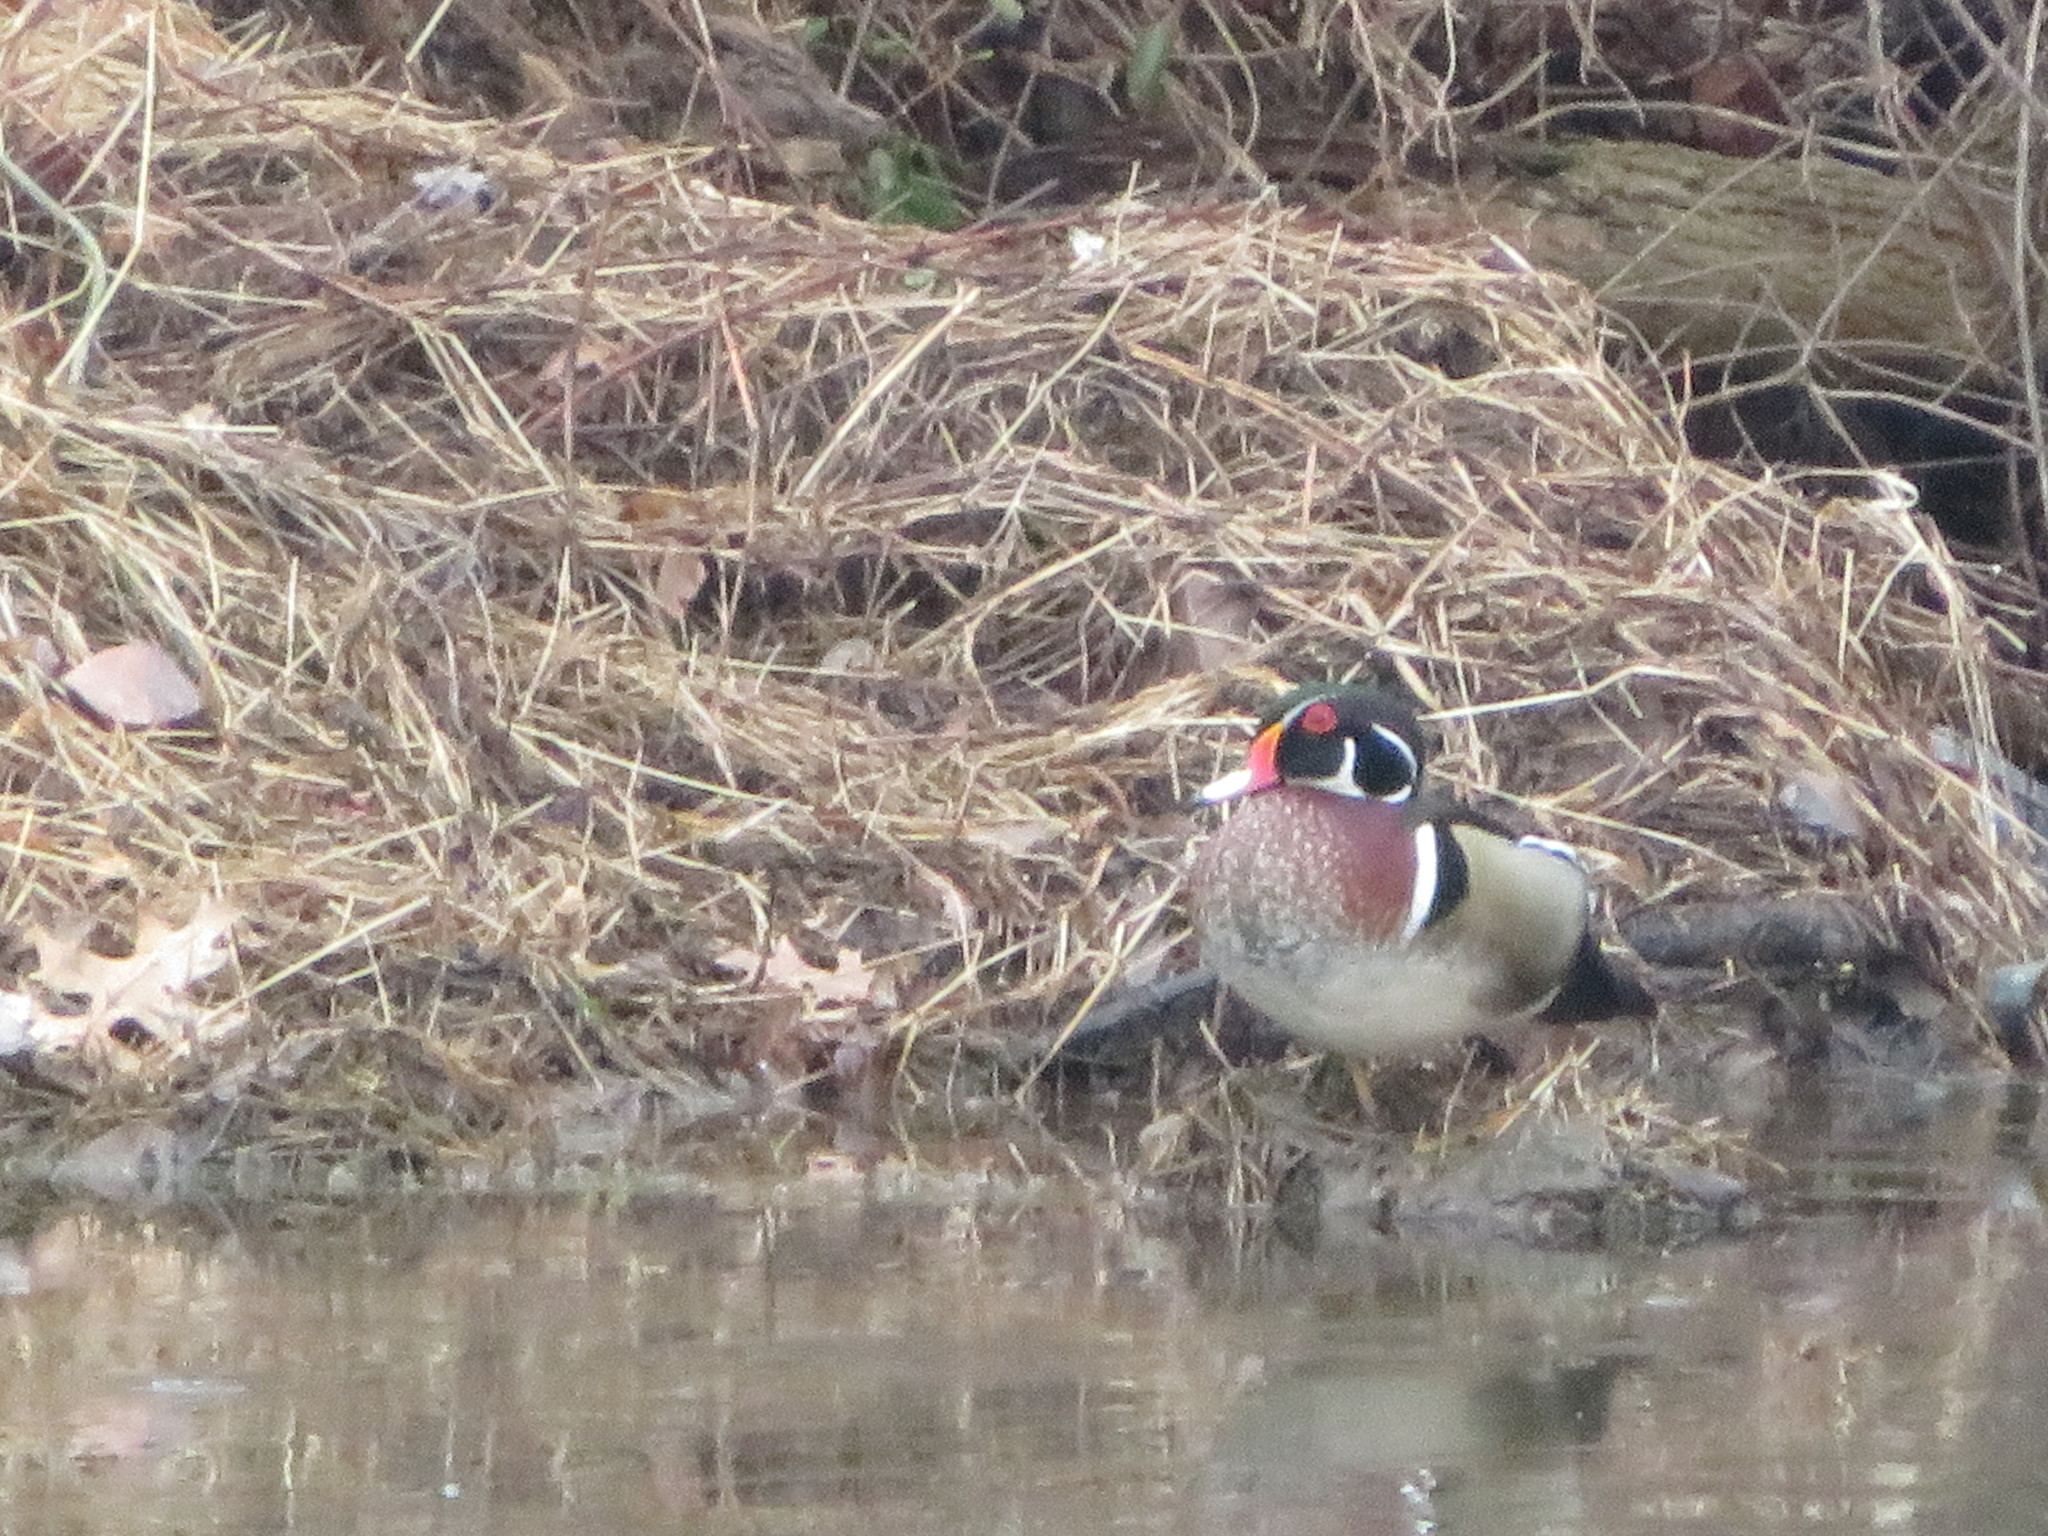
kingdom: Animalia
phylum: Chordata
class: Aves
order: Anseriformes
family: Anatidae
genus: Aix
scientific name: Aix sponsa
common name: Wood duck
